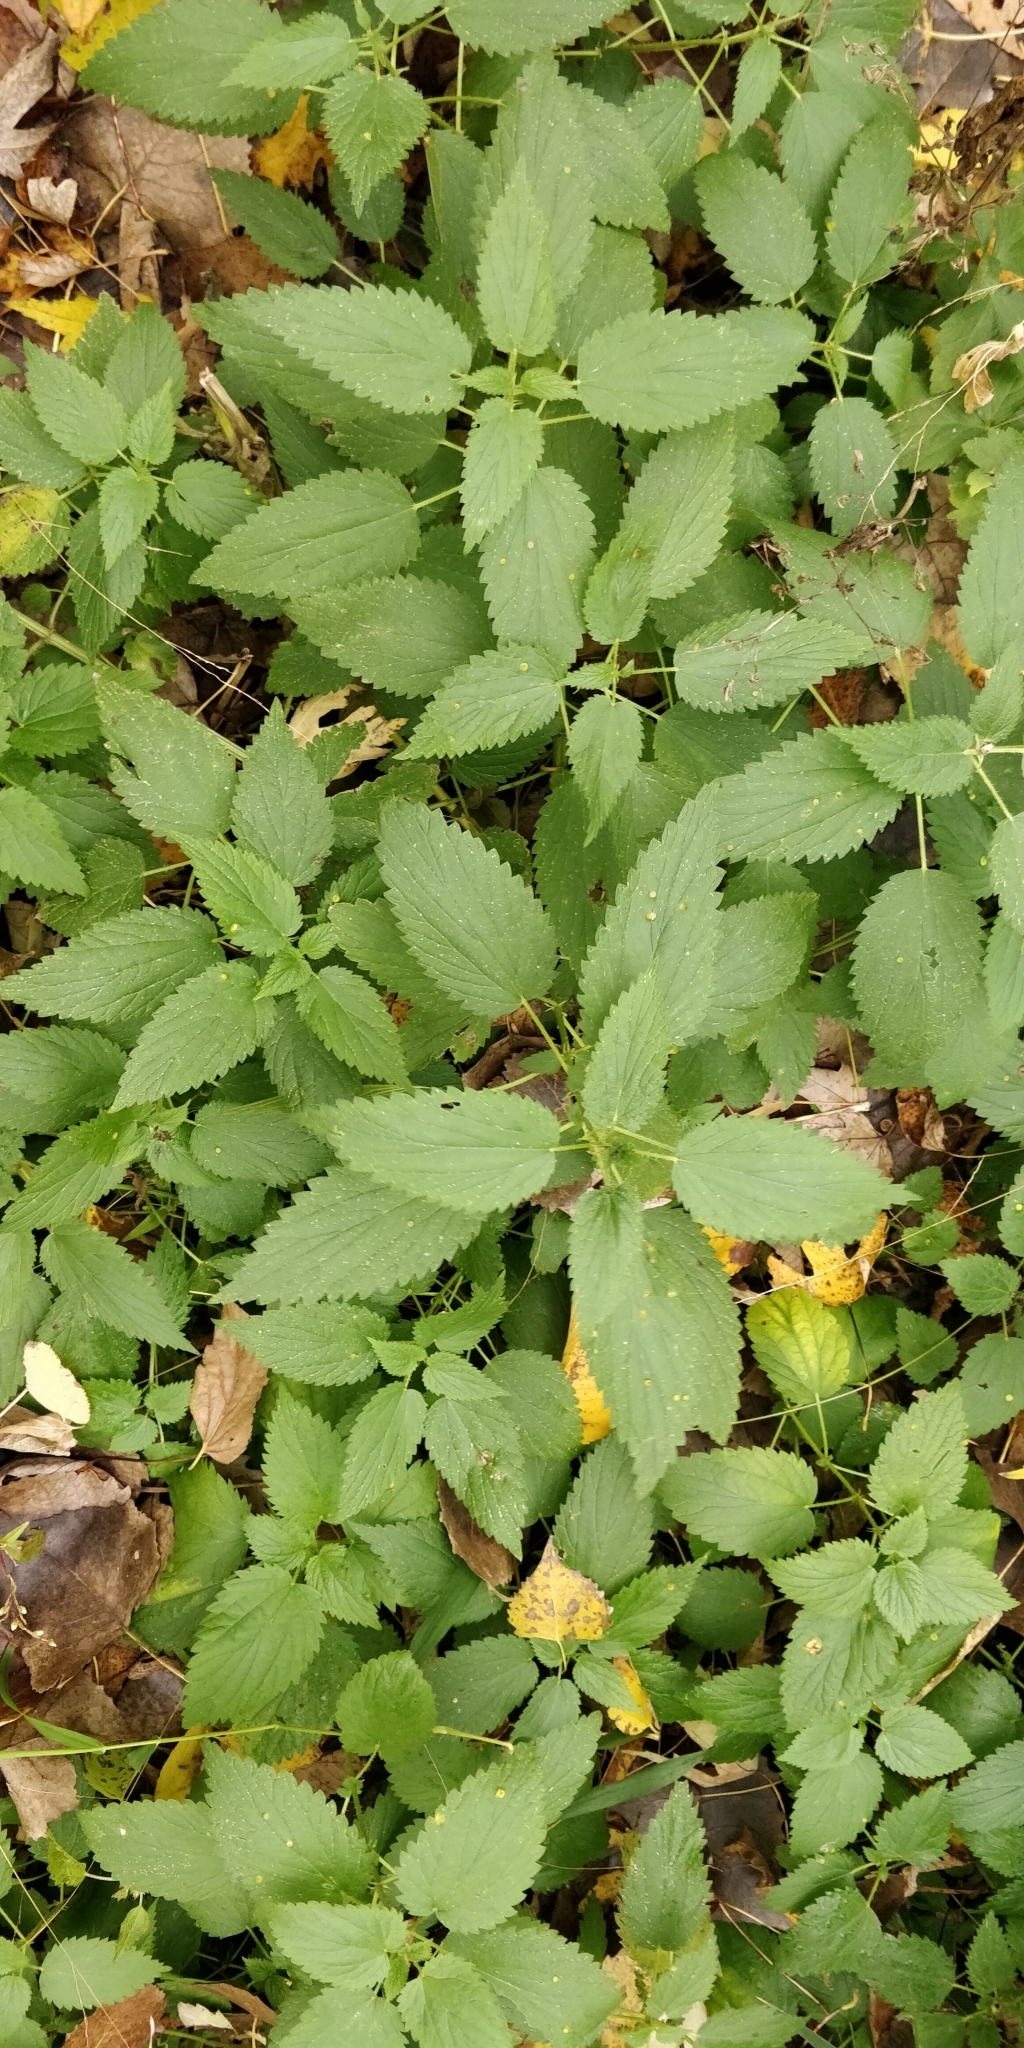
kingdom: Plantae
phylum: Tracheophyta
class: Magnoliopsida
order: Rosales
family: Urticaceae
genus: Urtica
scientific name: Urtica dioica
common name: Common nettle
